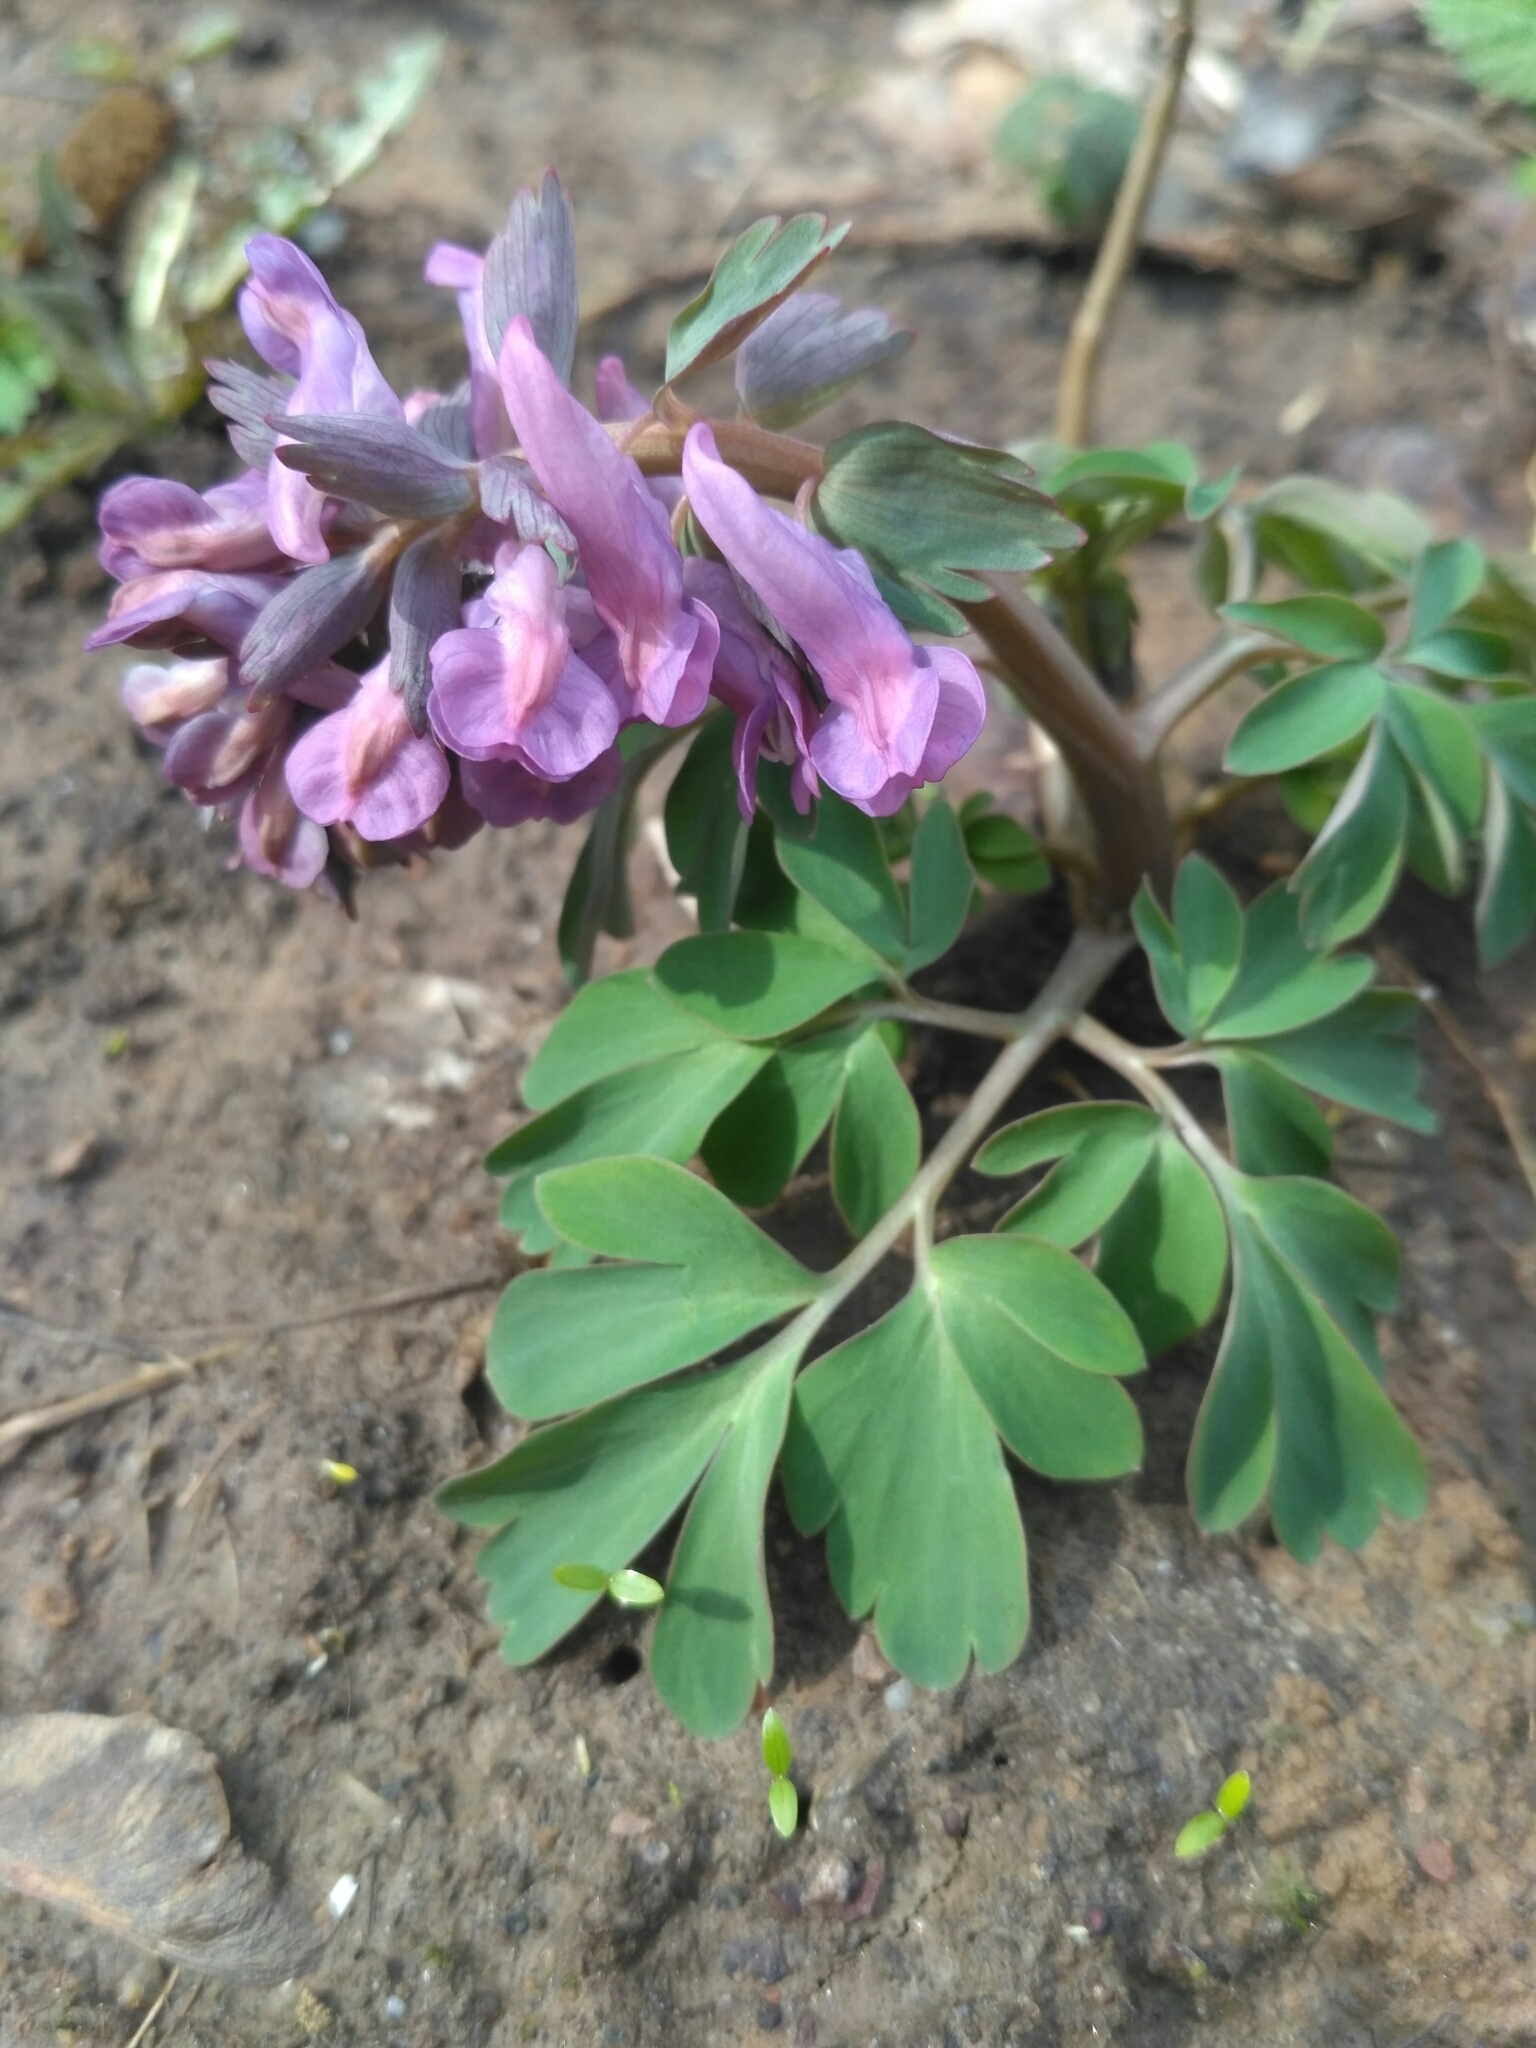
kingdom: Plantae
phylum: Tracheophyta
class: Magnoliopsida
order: Ranunculales
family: Papaveraceae
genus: Corydalis
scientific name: Corydalis solida
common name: Bird-in-a-bush
